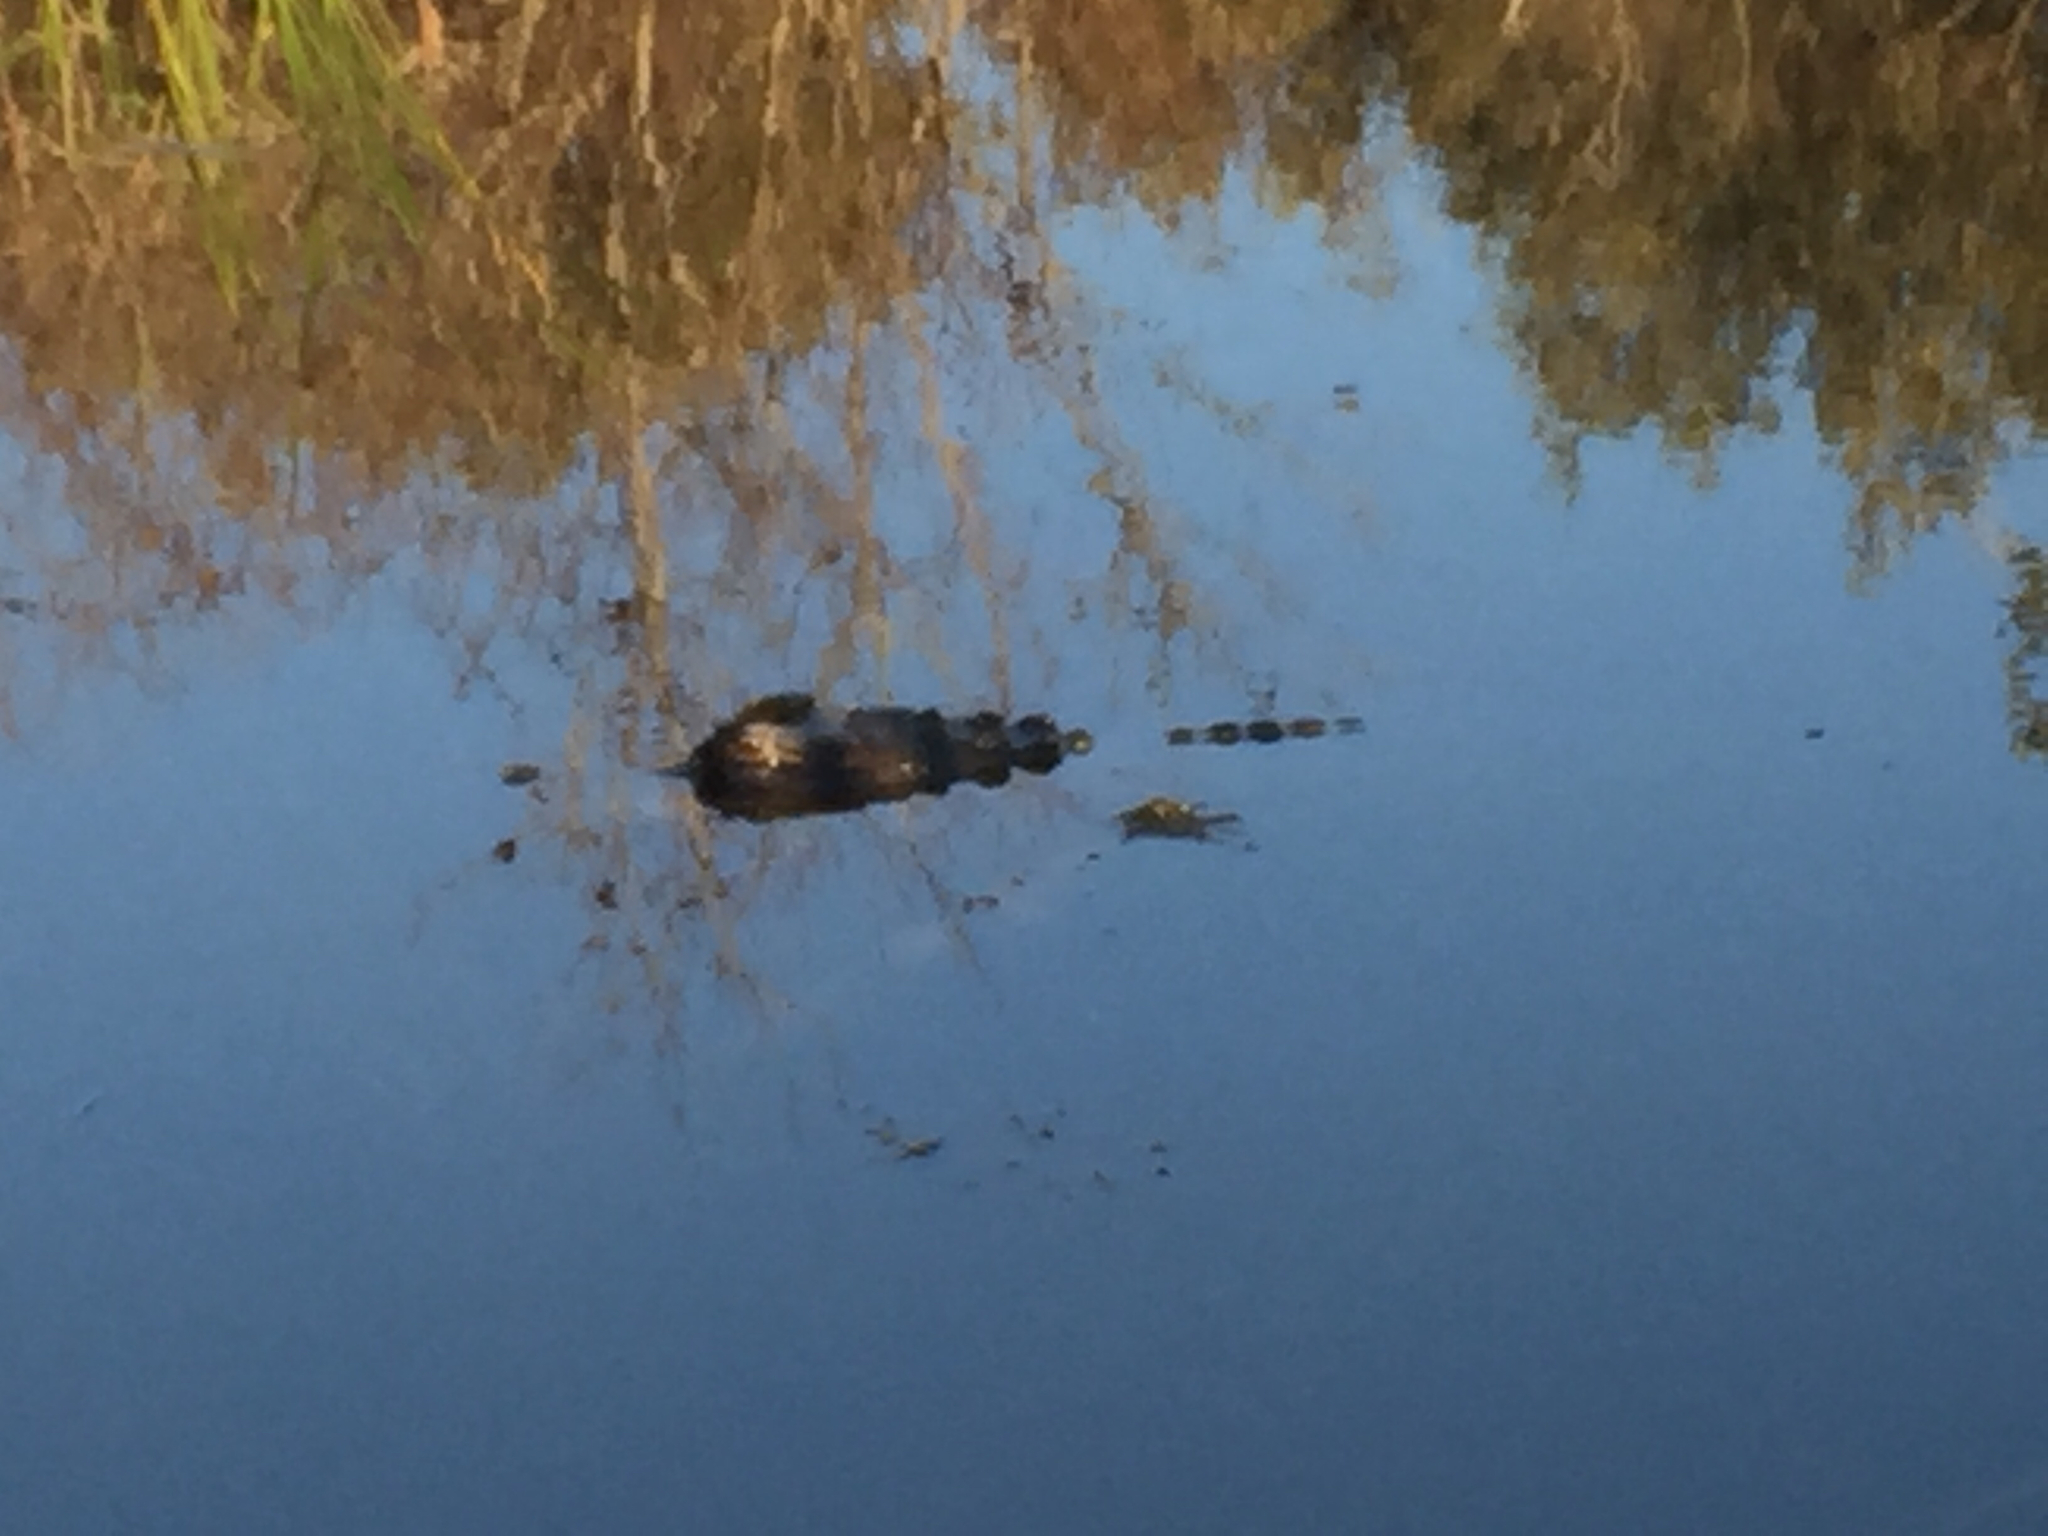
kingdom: Animalia
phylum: Chordata
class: Crocodylia
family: Alligatoridae
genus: Alligator
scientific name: Alligator mississippiensis
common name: American alligator
